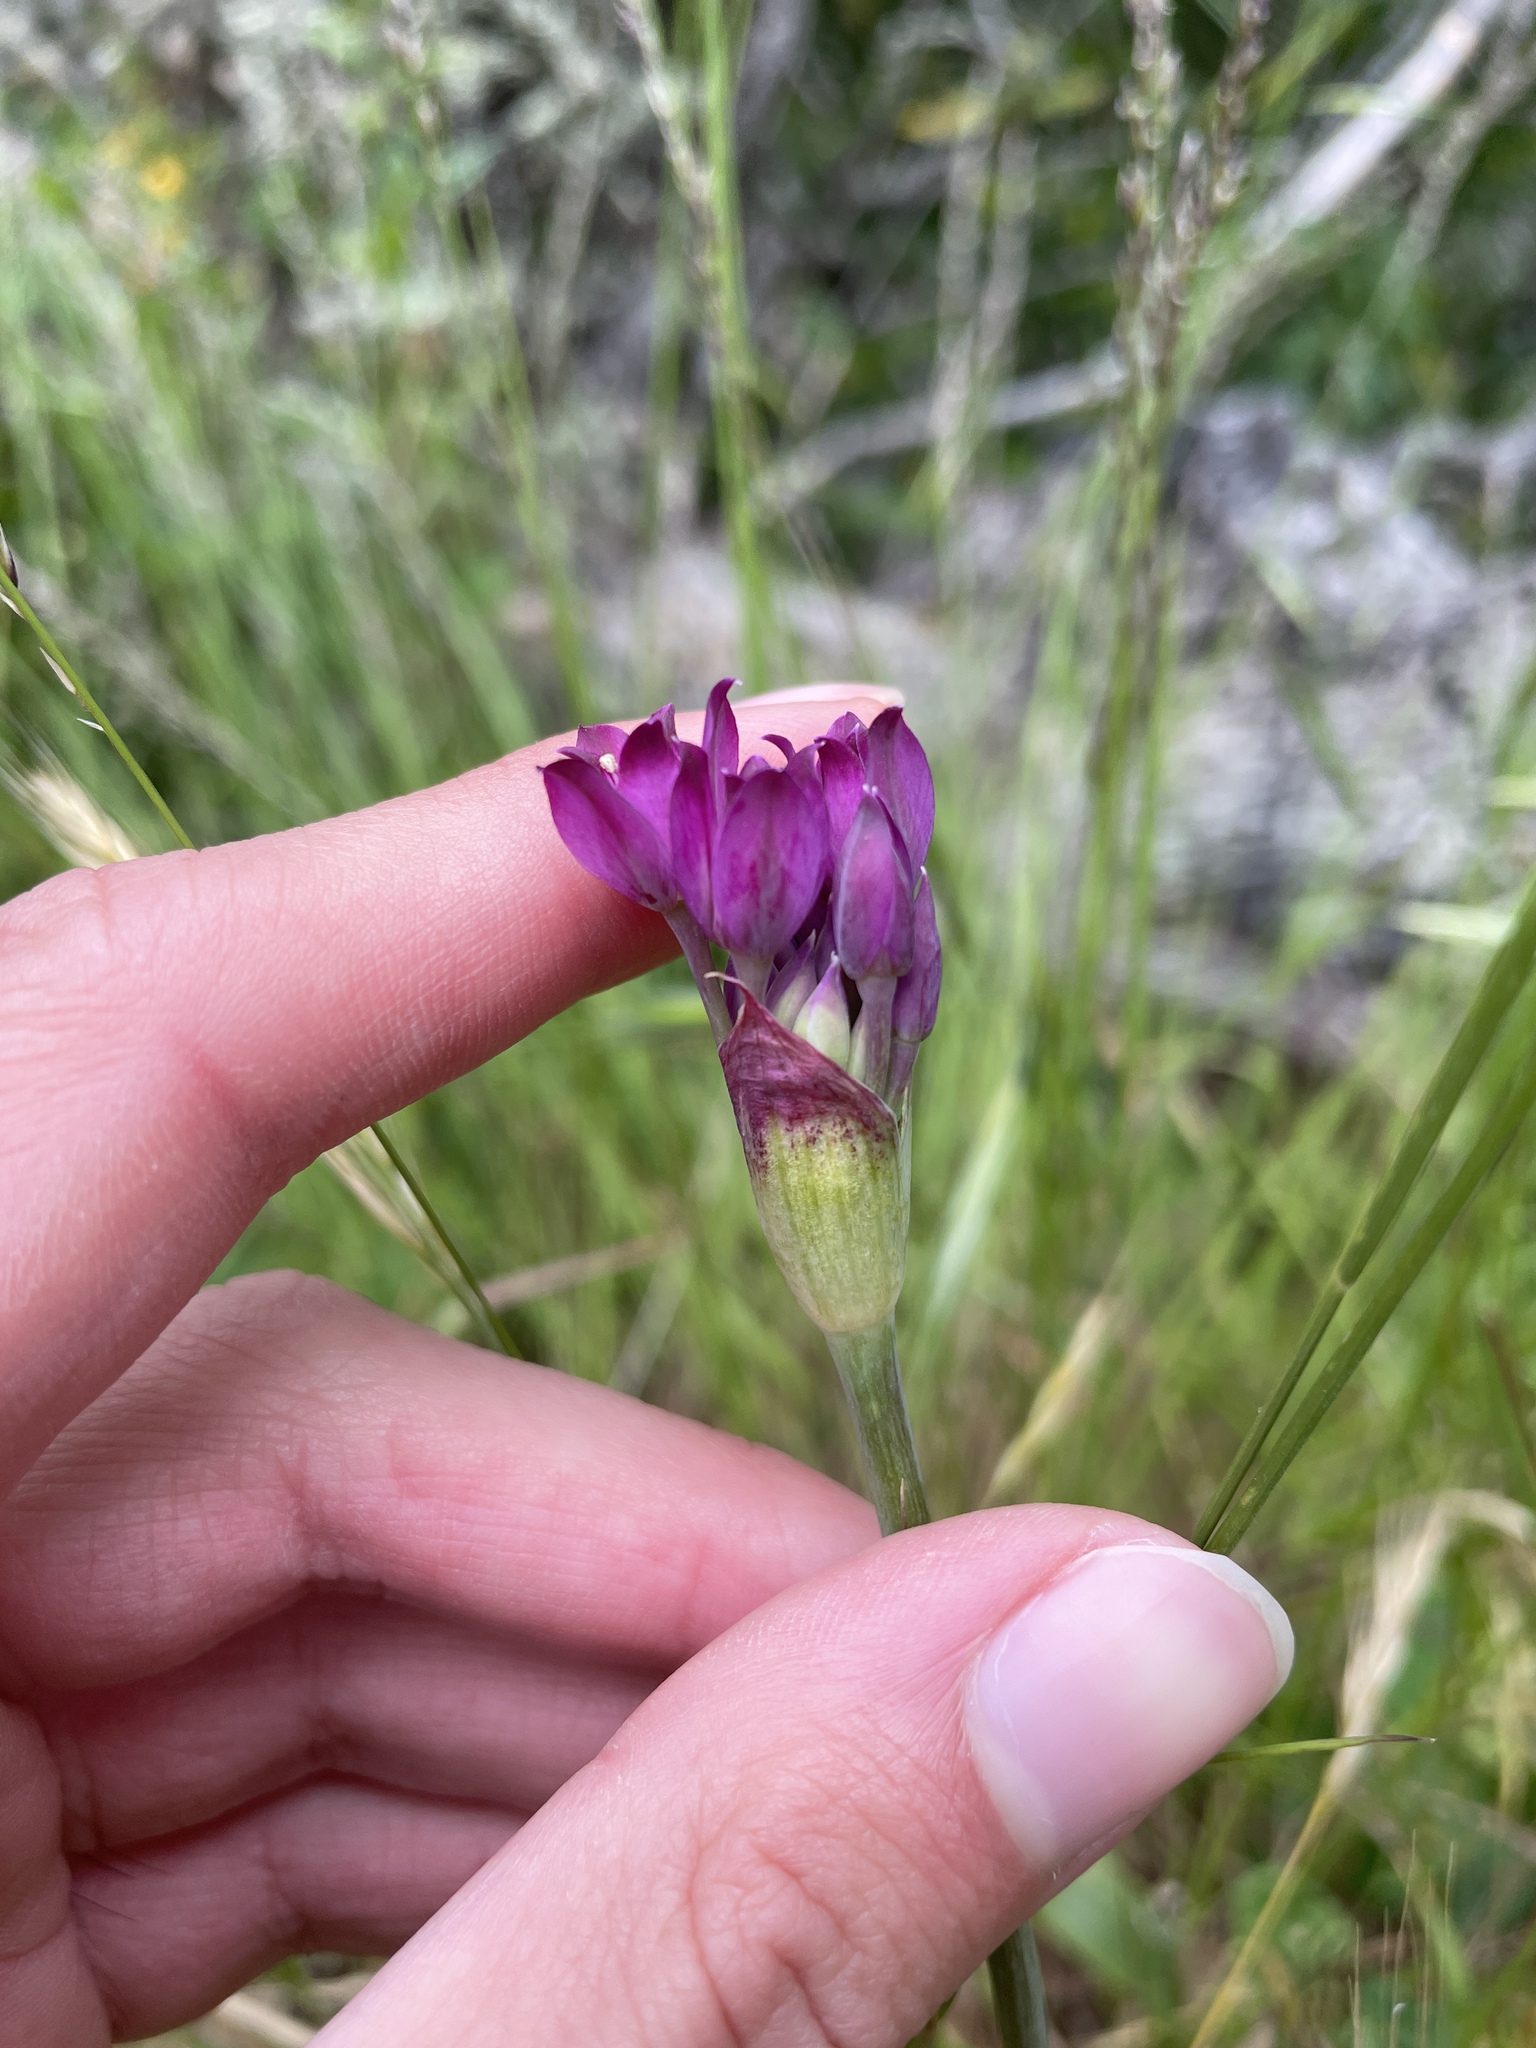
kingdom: Plantae
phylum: Tracheophyta
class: Liliopsida
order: Asparagales
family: Amaryllidaceae
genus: Allium
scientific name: Allium peninsulare
